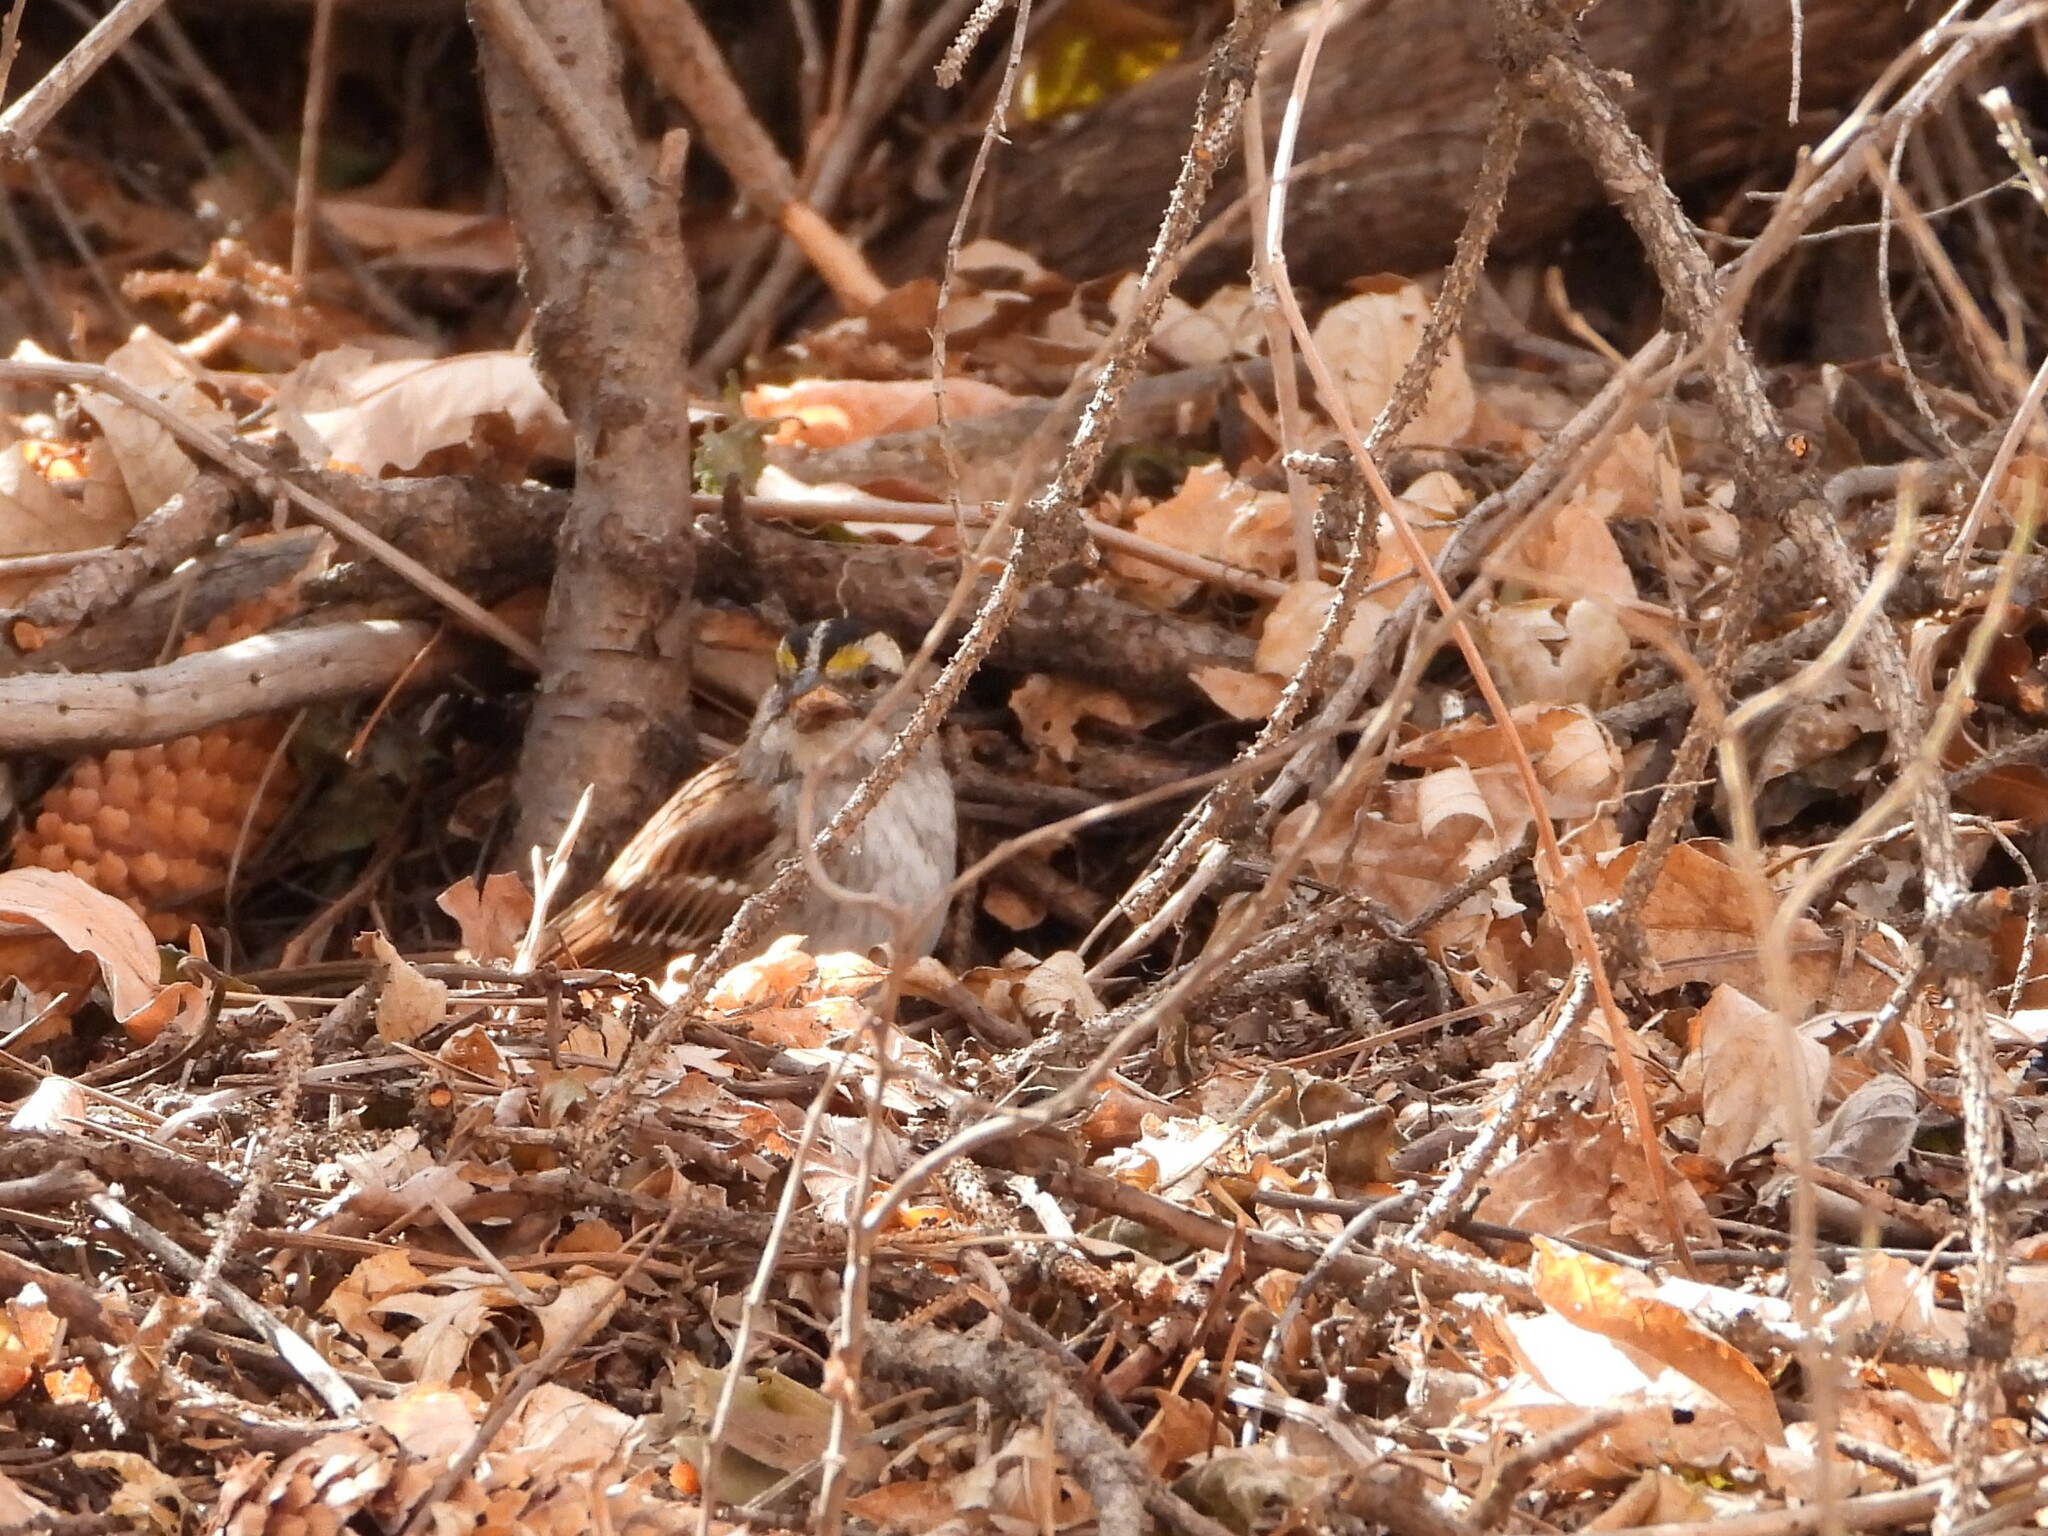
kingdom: Animalia
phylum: Chordata
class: Aves
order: Passeriformes
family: Passerellidae
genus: Zonotrichia
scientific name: Zonotrichia albicollis
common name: White-throated sparrow
